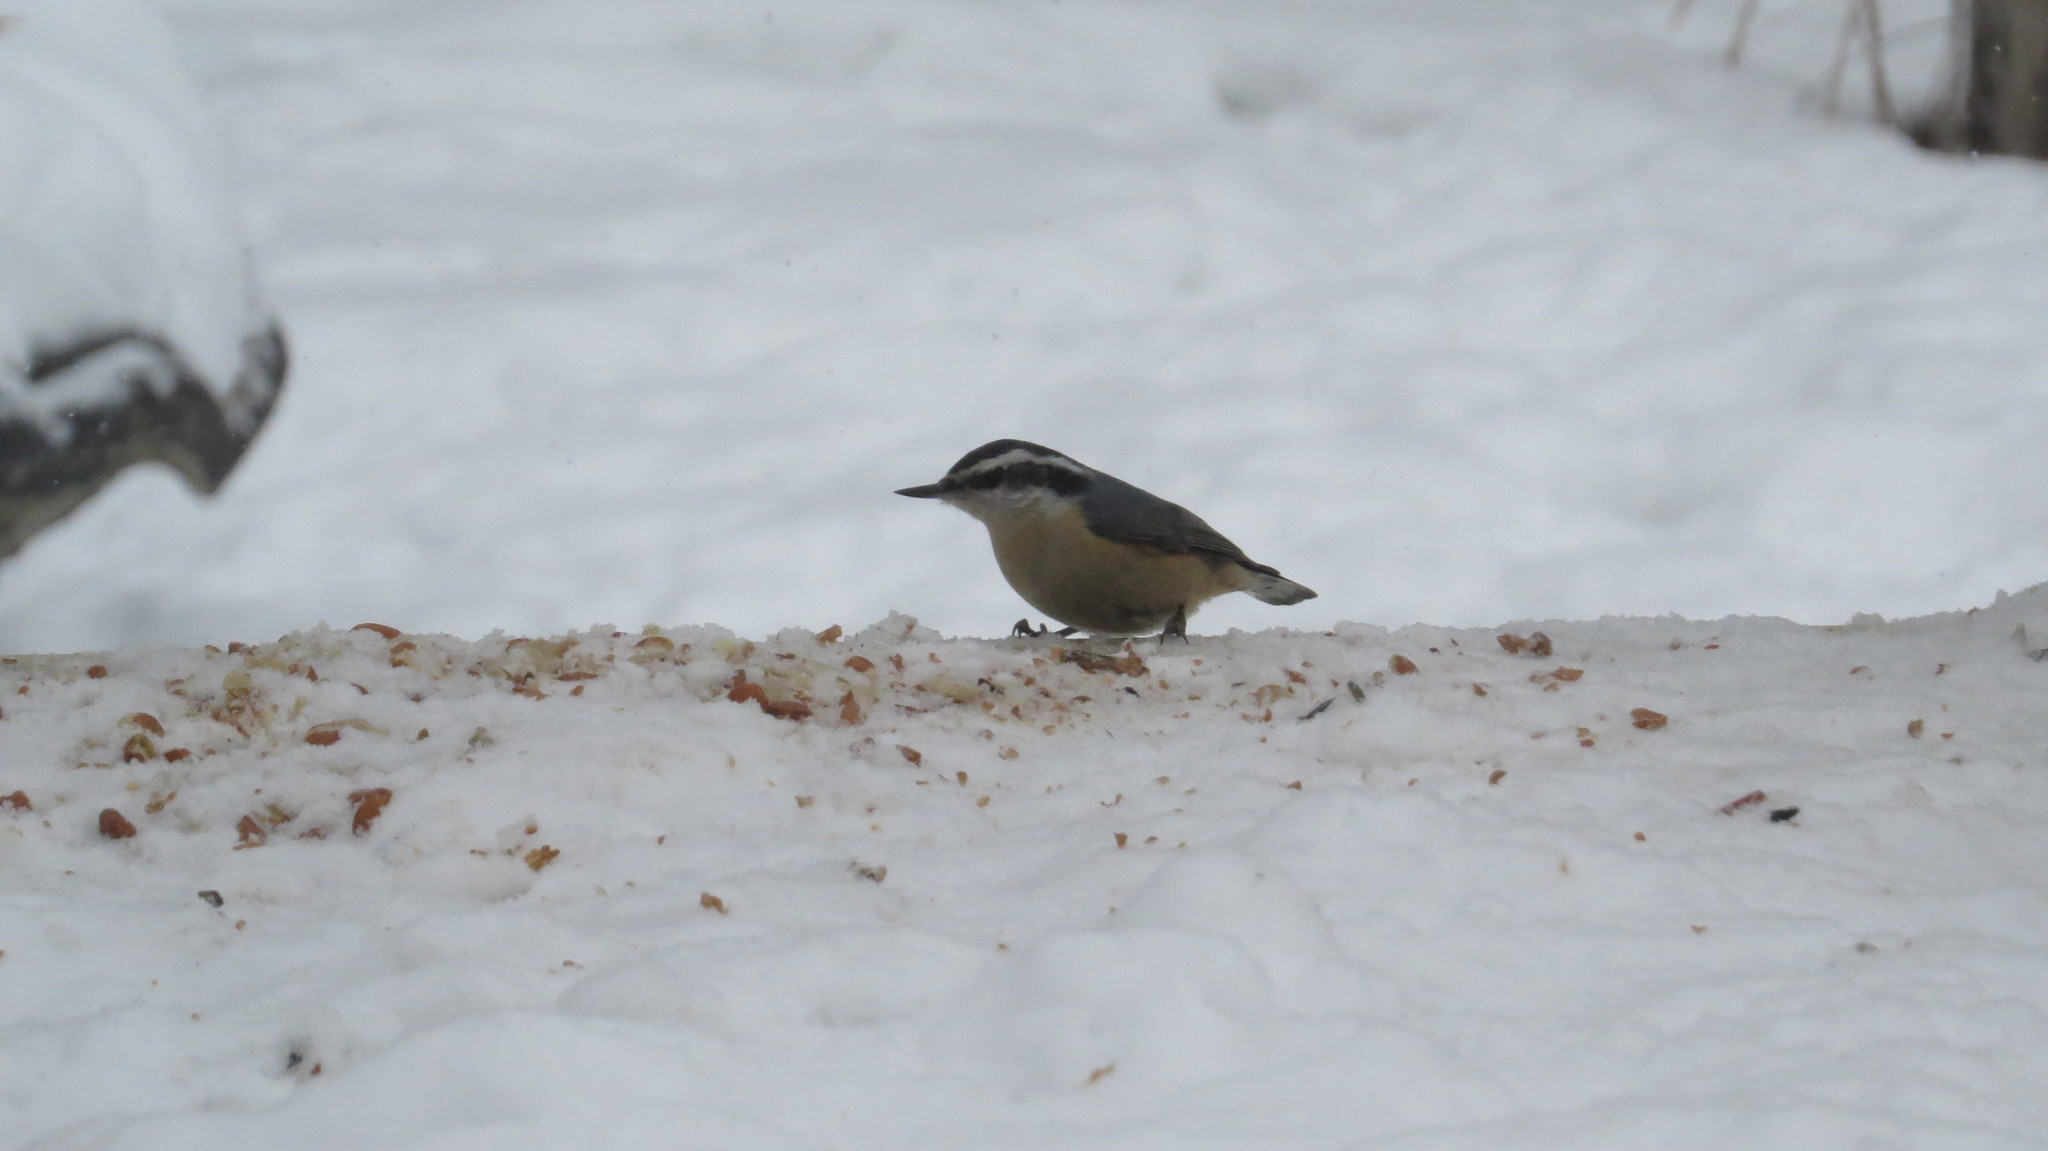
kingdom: Animalia
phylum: Chordata
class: Aves
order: Passeriformes
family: Sittidae
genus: Sitta
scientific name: Sitta canadensis
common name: Red-breasted nuthatch
